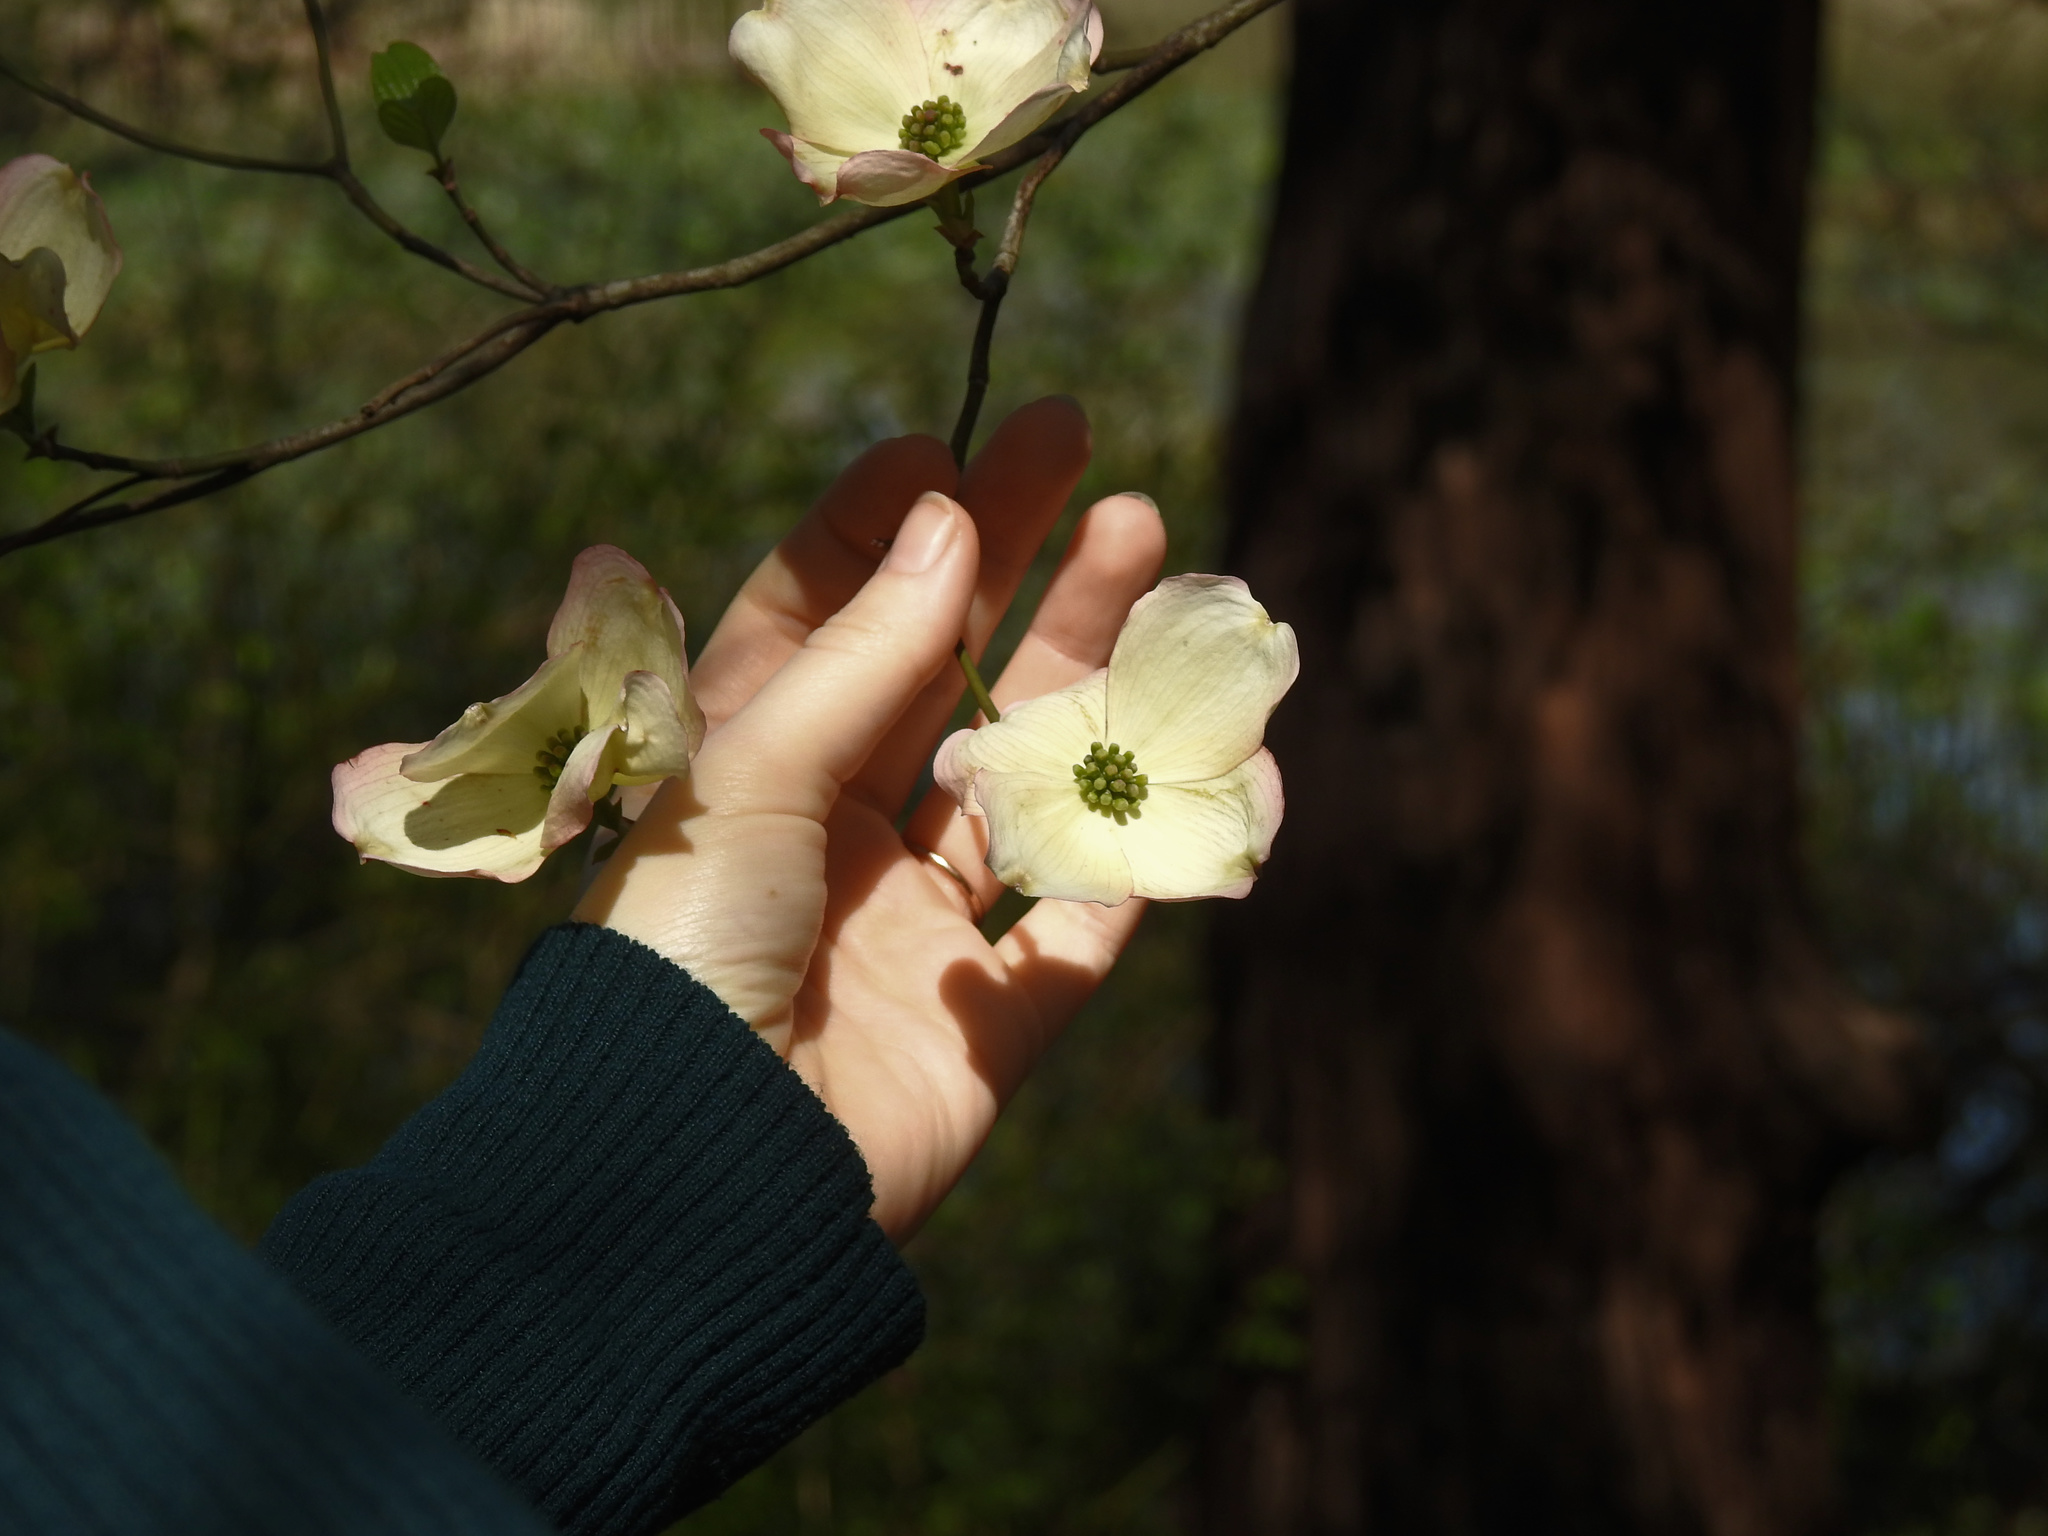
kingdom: Plantae
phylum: Tracheophyta
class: Magnoliopsida
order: Cornales
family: Cornaceae
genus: Cornus
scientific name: Cornus florida
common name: Flowering dogwood
